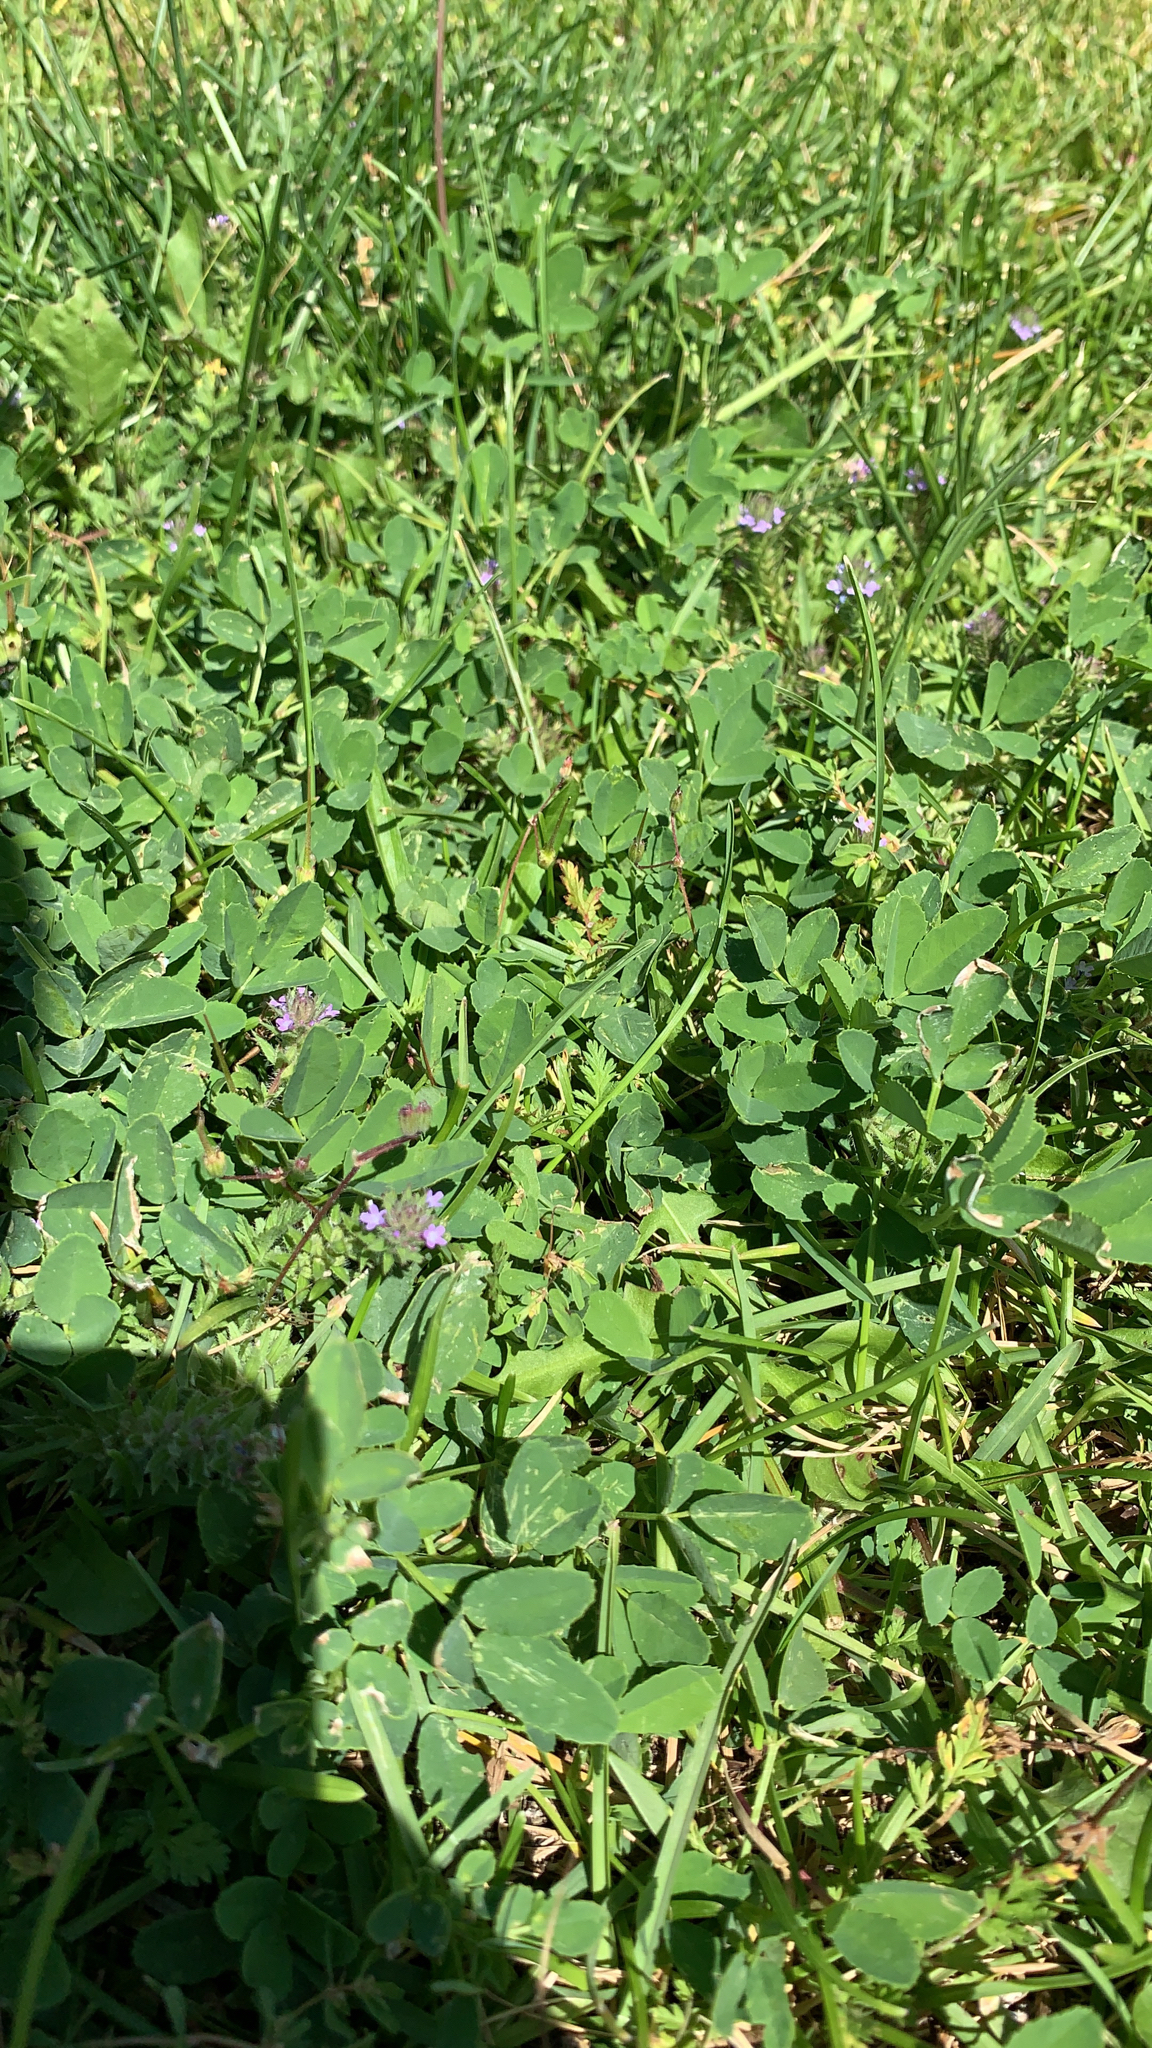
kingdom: Plantae
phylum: Tracheophyta
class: Magnoliopsida
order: Fabales
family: Fabaceae
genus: Medicago
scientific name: Medicago sativa
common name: Alfalfa
